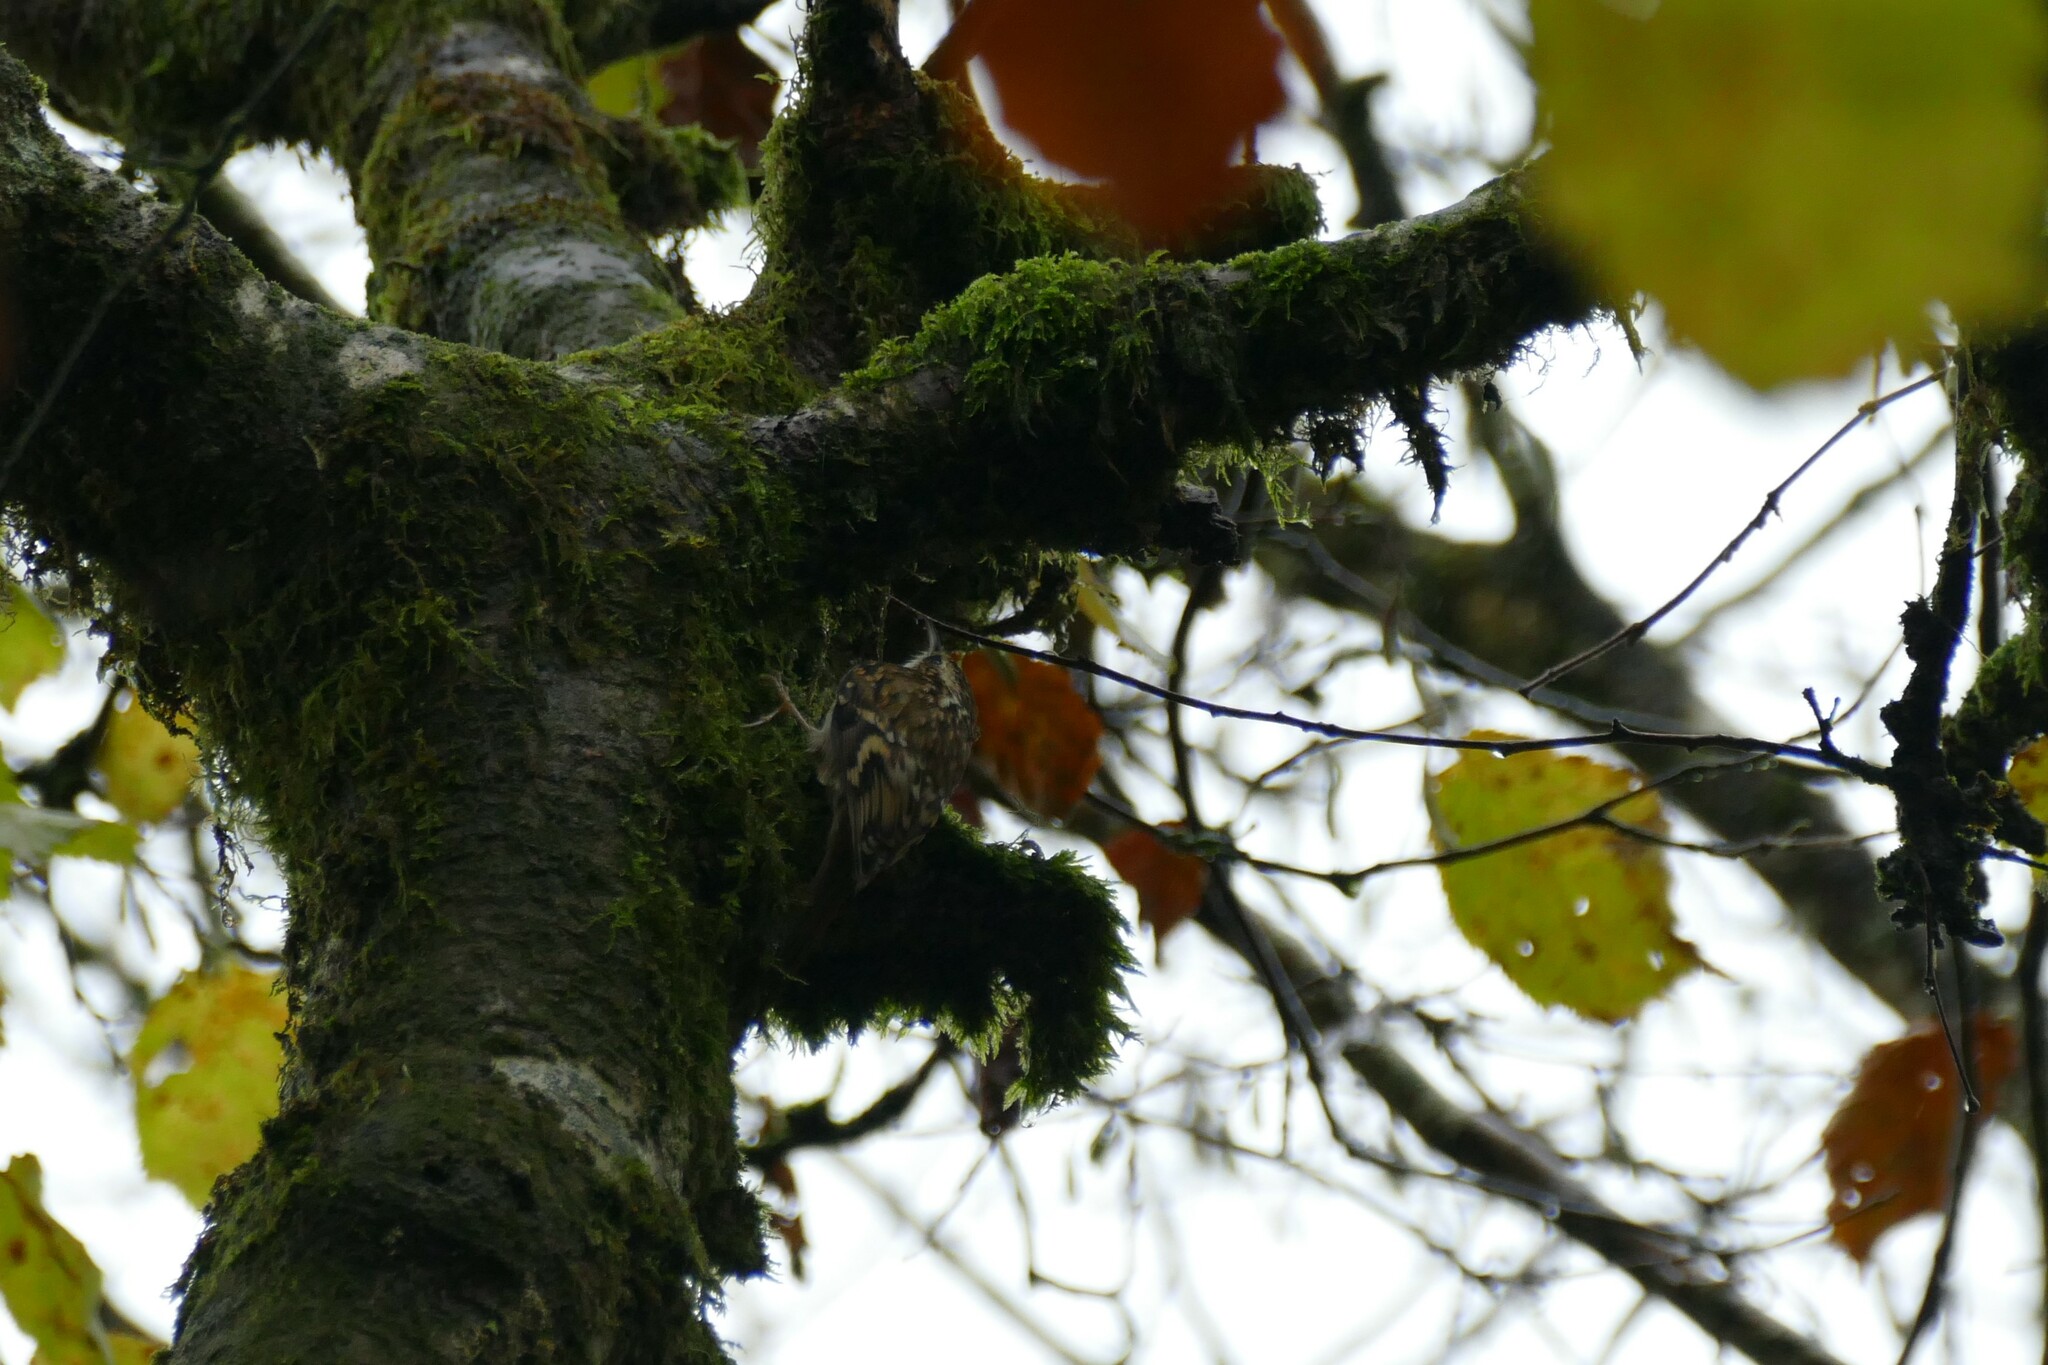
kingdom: Animalia
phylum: Chordata
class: Aves
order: Passeriformes
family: Certhiidae
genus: Certhia
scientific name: Certhia familiaris
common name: Eurasian treecreeper
